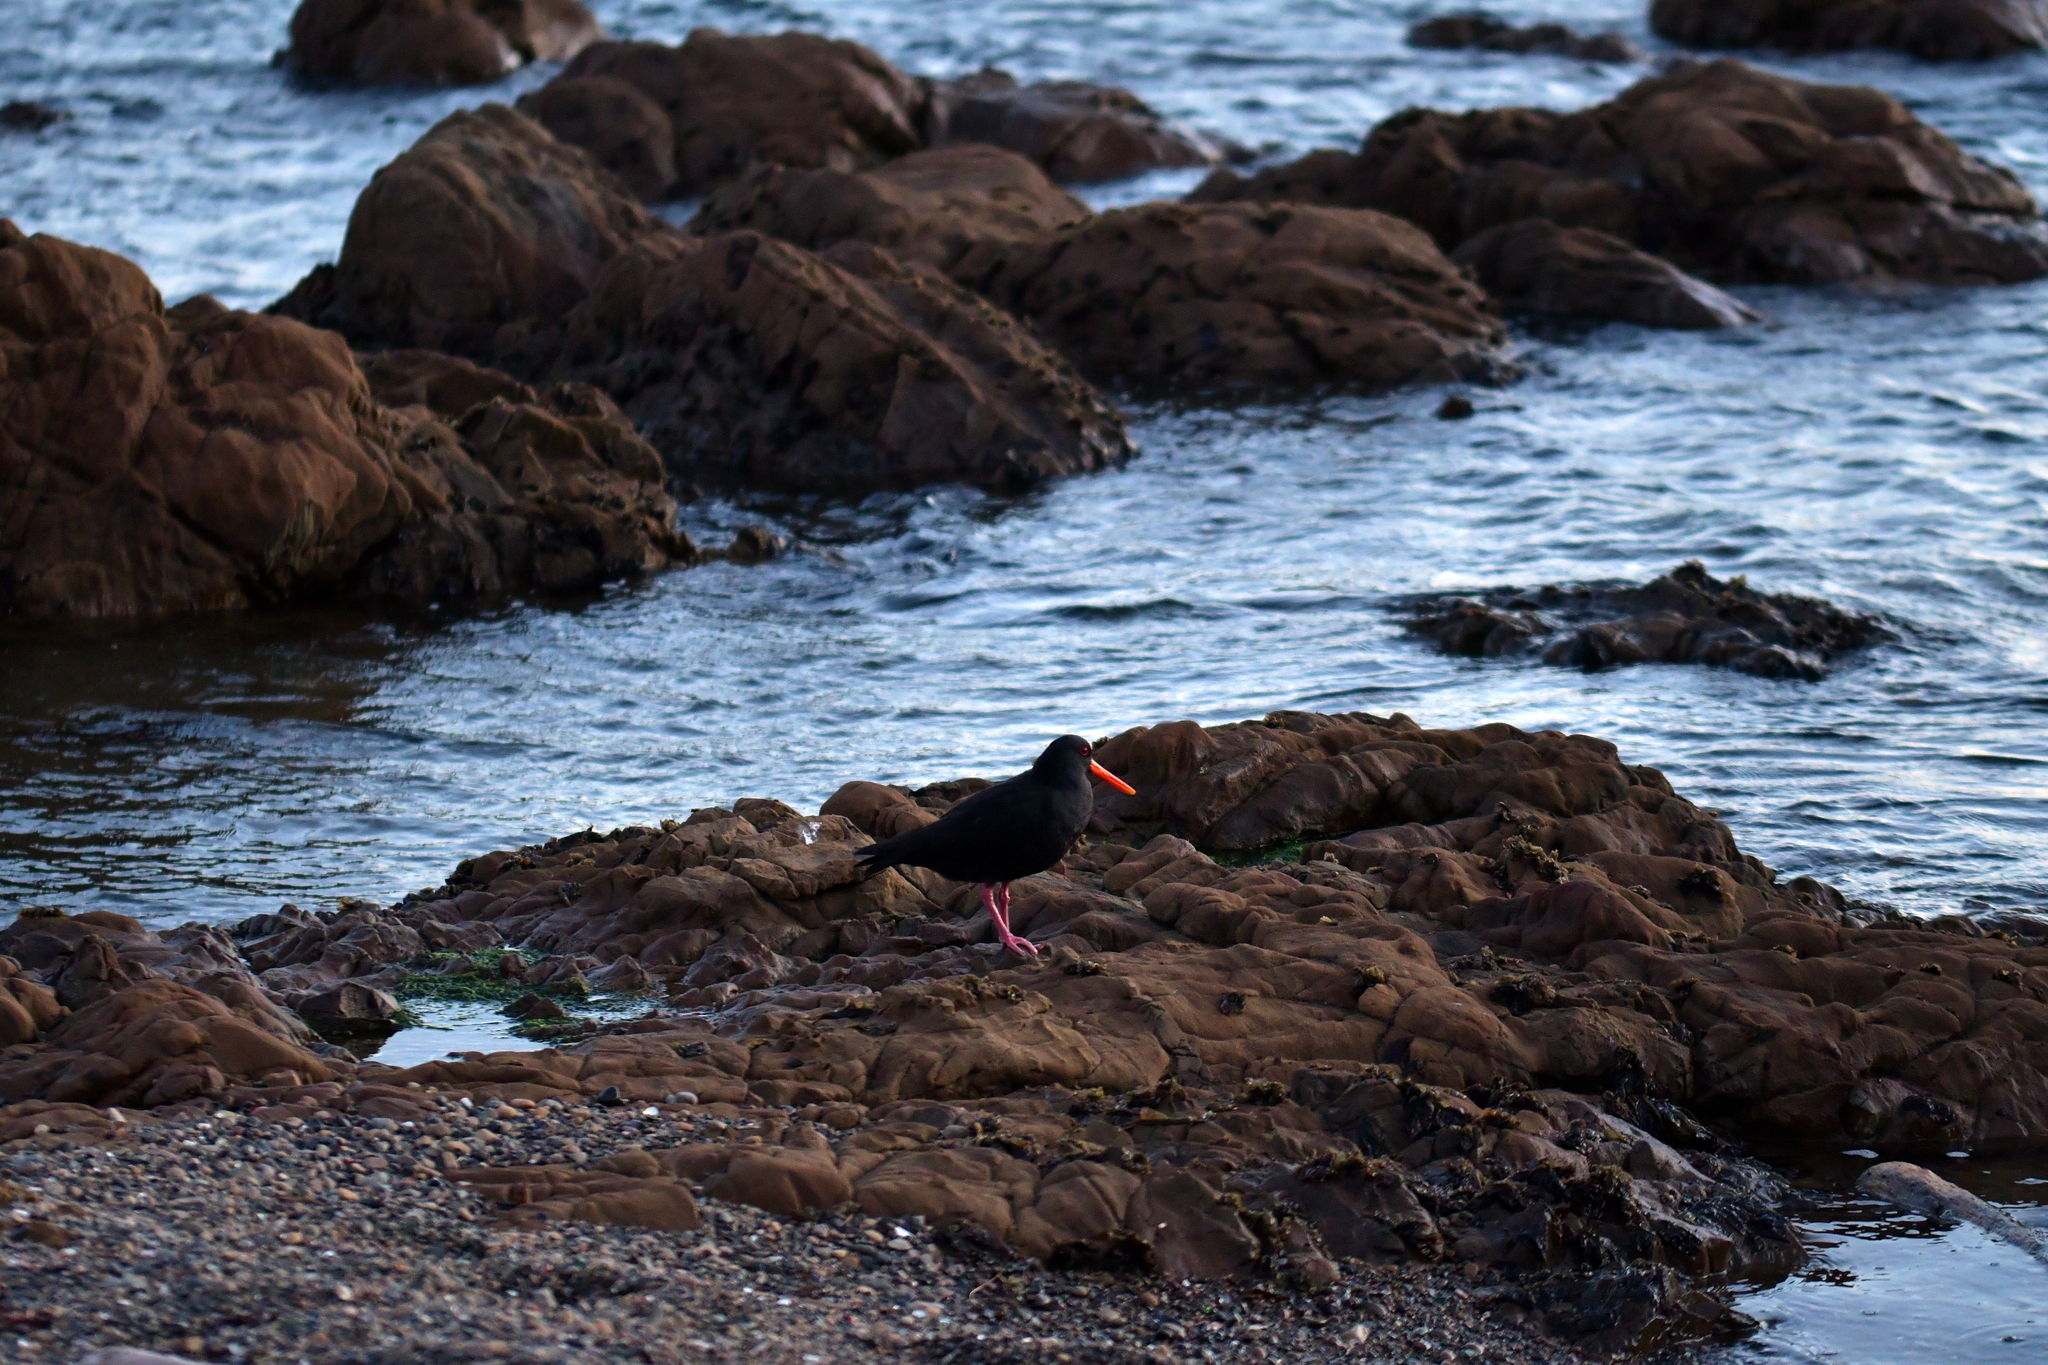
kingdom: Animalia
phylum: Chordata
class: Aves
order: Charadriiformes
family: Haematopodidae
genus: Haematopus
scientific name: Haematopus unicolor
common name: Variable oystercatcher
